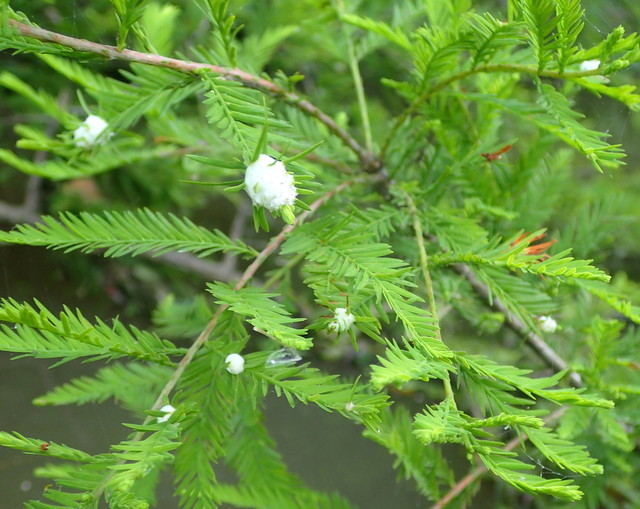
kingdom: Animalia
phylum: Arthropoda
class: Insecta
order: Diptera
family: Cecidomyiidae
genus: Taxodiomyia
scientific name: Taxodiomyia cupressiananassa
